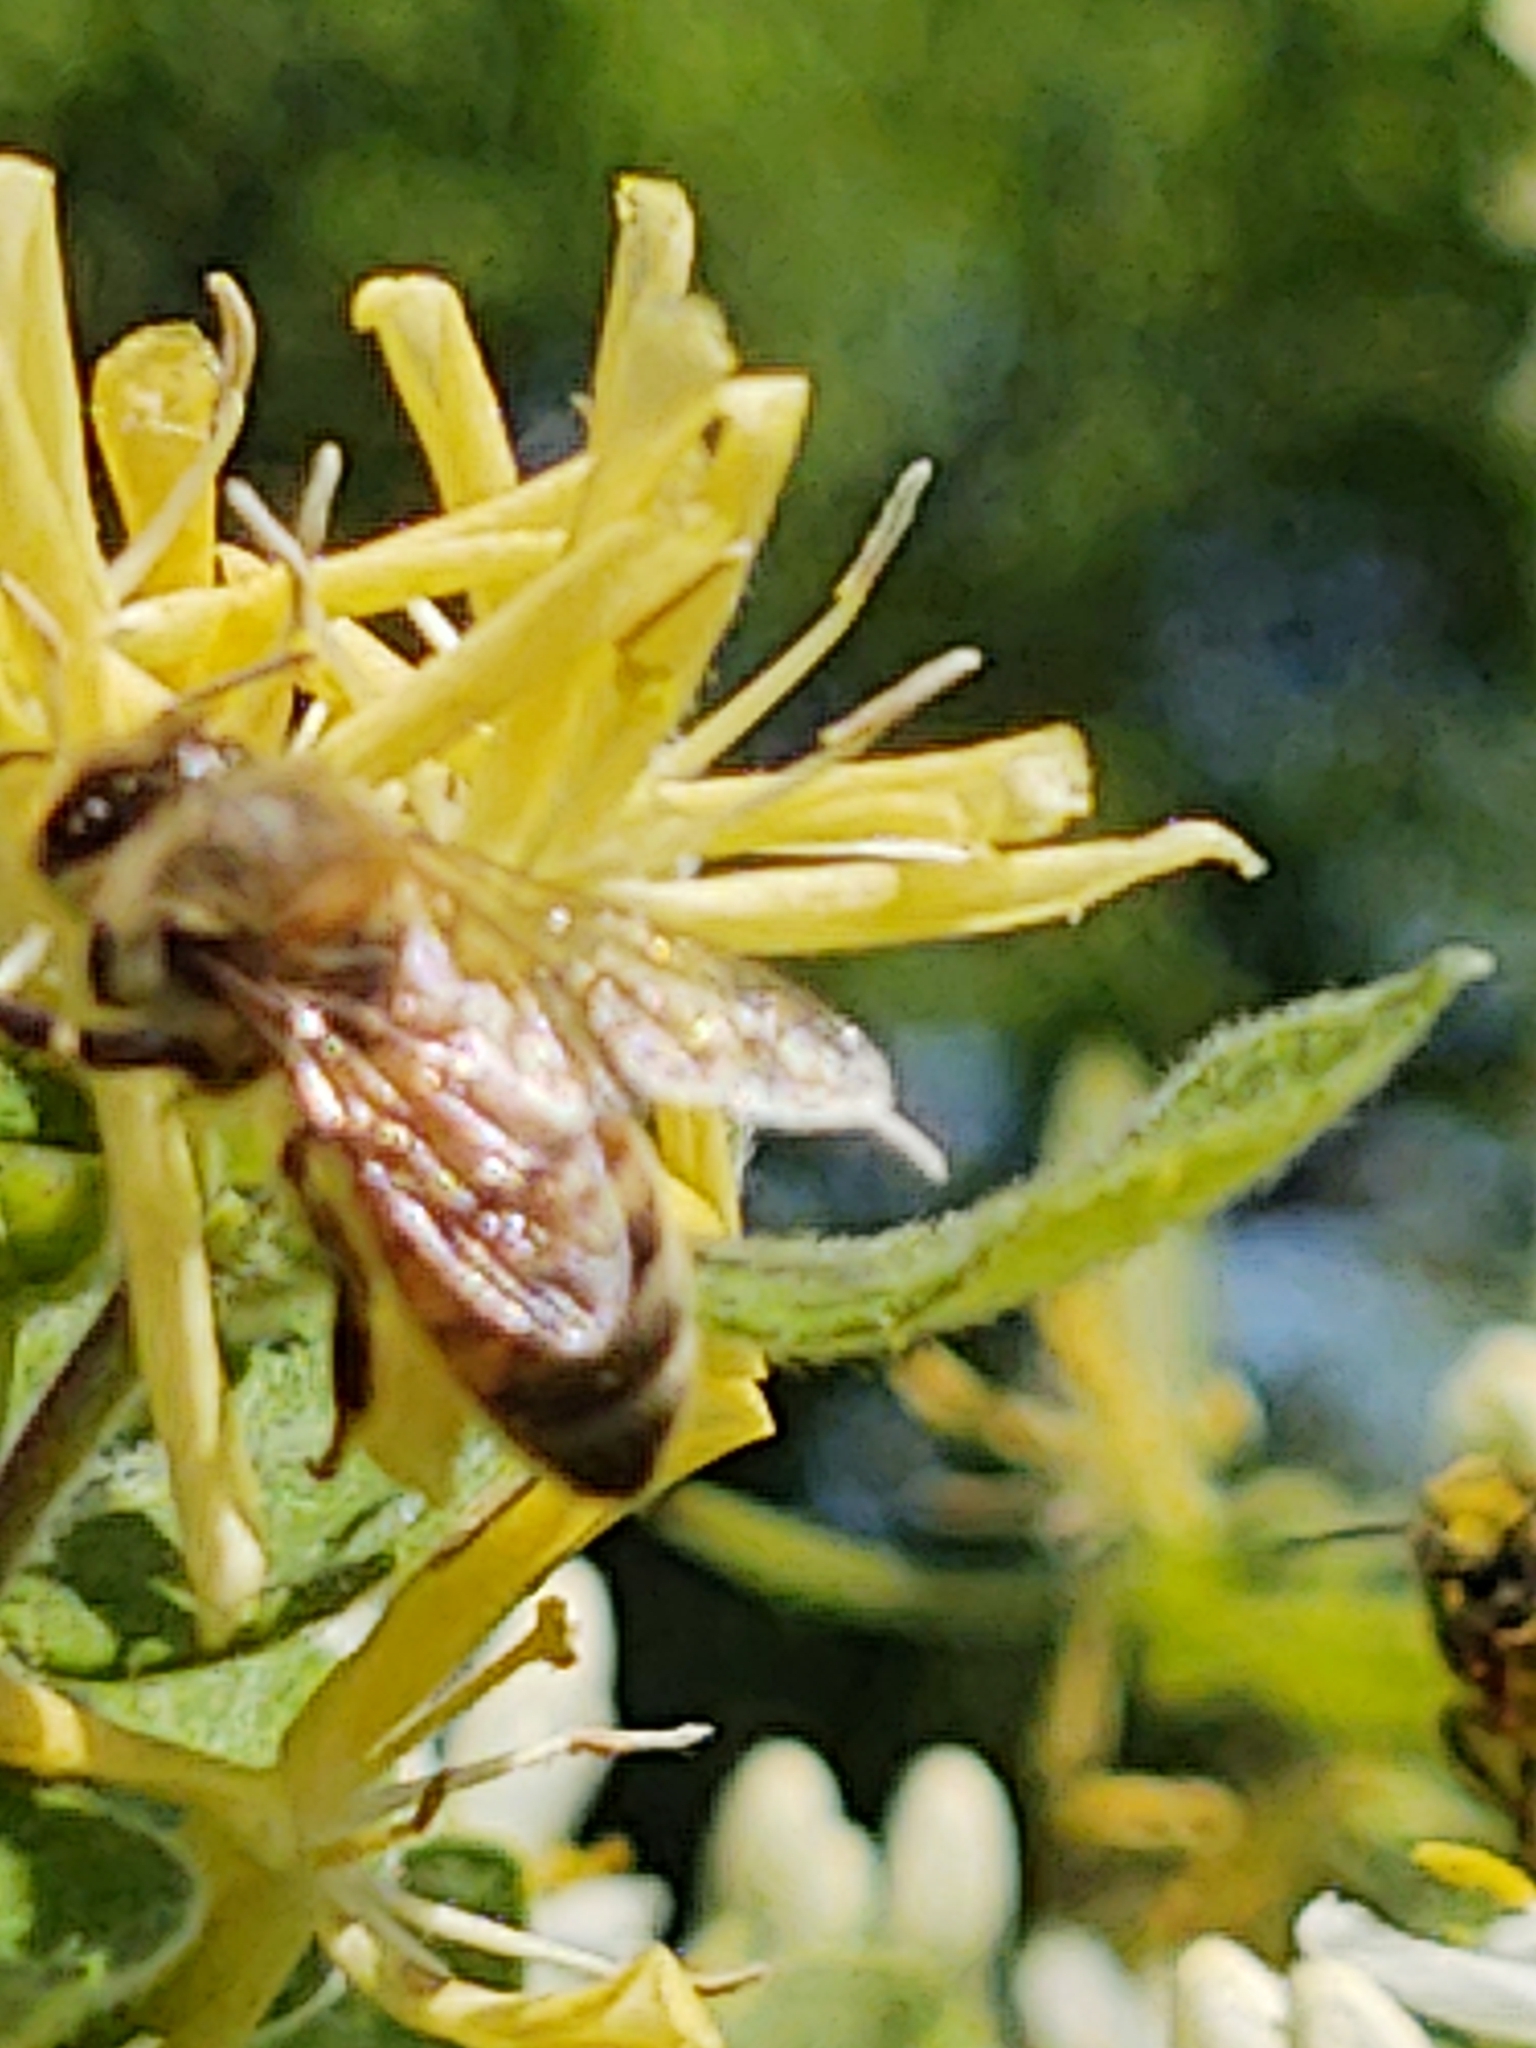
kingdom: Animalia
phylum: Arthropoda
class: Insecta
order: Hymenoptera
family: Apidae
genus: Apis
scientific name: Apis mellifera
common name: Honey bee
